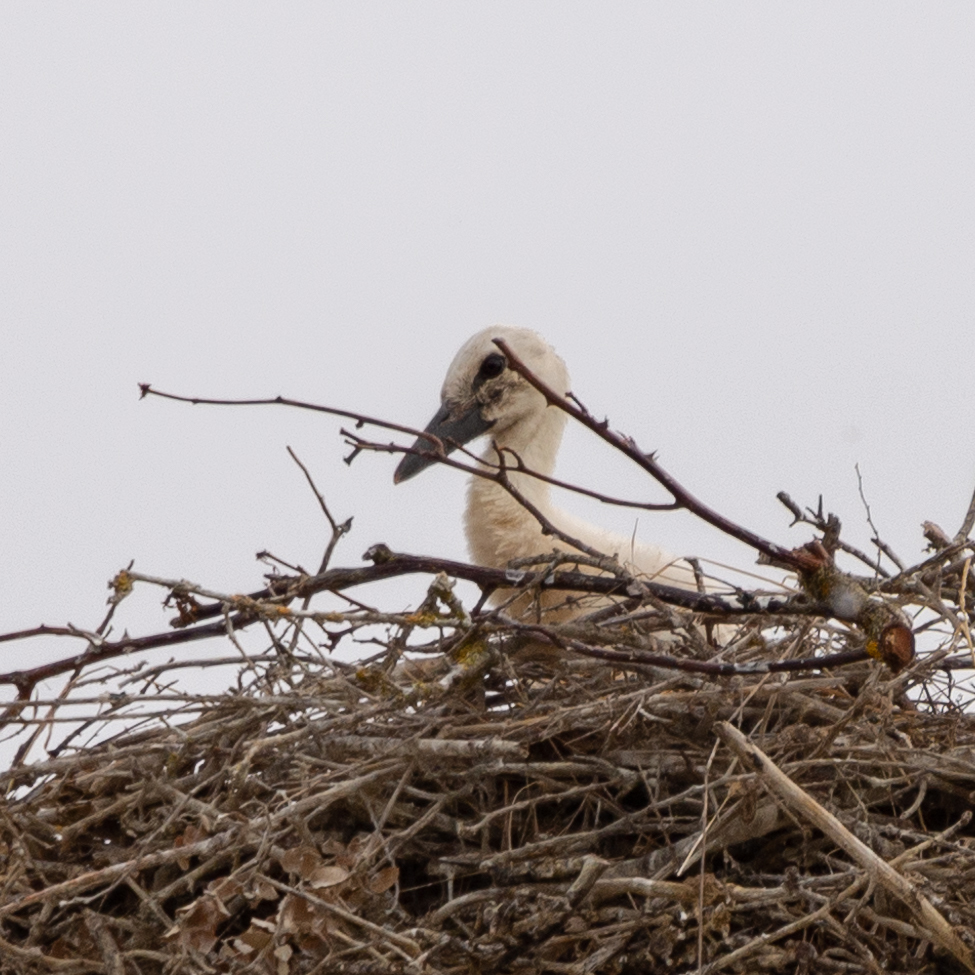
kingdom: Animalia
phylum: Chordata
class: Aves
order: Ciconiiformes
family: Ciconiidae
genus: Ciconia
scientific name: Ciconia ciconia
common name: White stork
